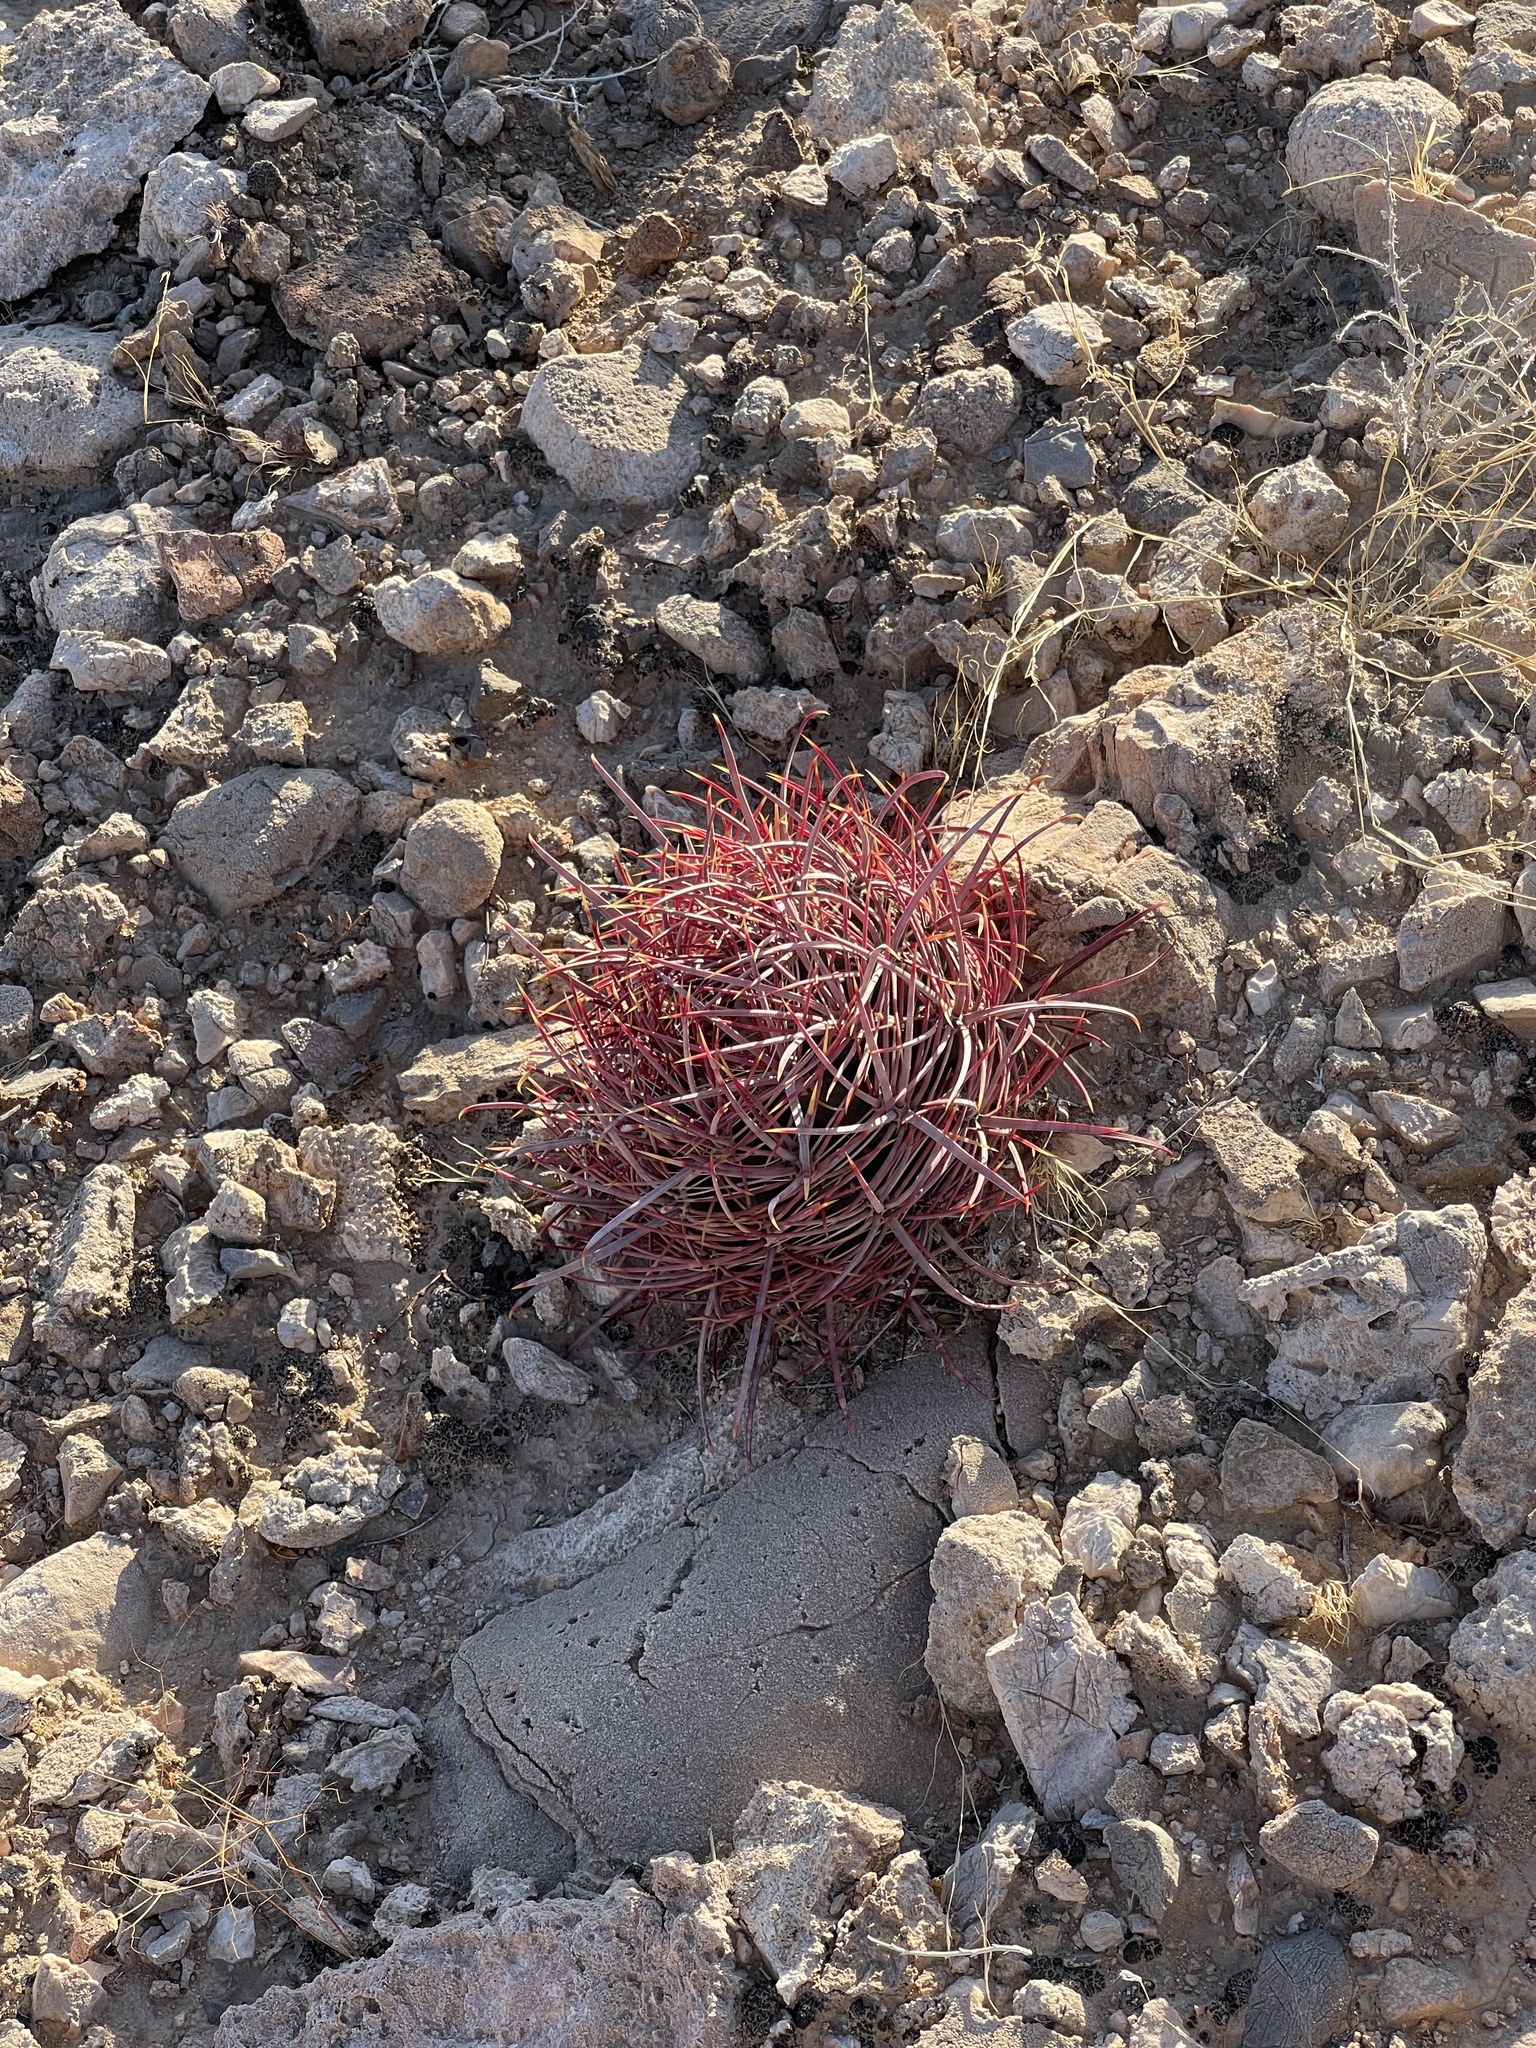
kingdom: Plantae
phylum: Tracheophyta
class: Magnoliopsida
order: Caryophyllales
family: Cactaceae
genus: Ferocactus
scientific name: Ferocactus cylindraceus
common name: California barrel cactus
